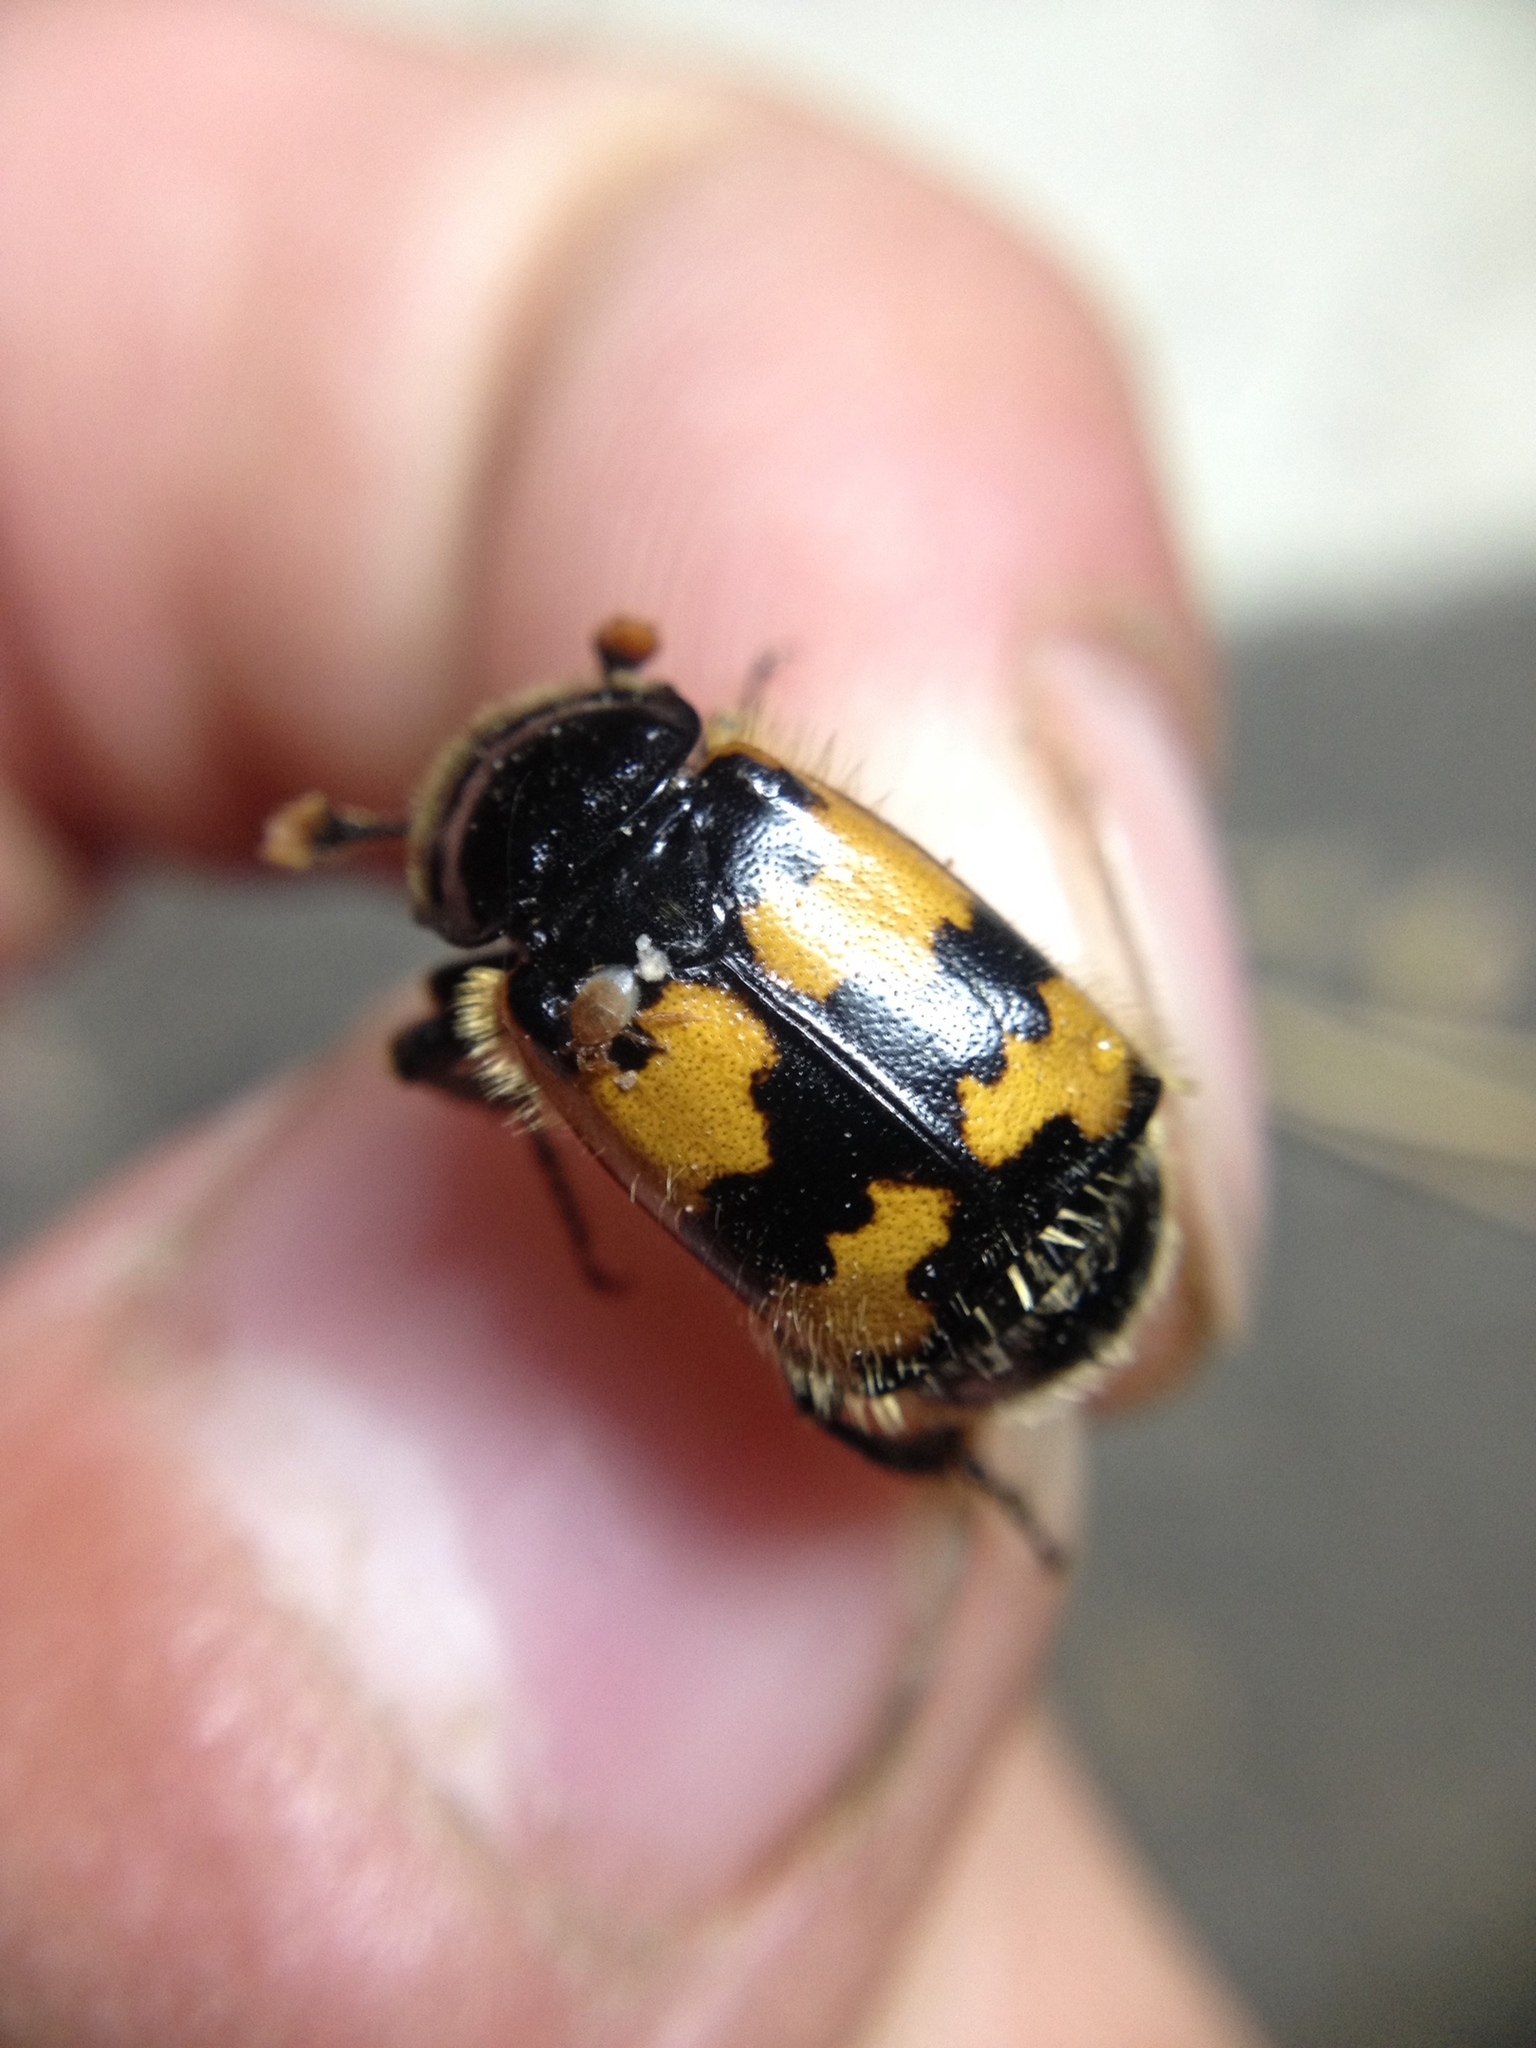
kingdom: Animalia
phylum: Arthropoda
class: Insecta
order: Coleoptera
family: Staphylinidae
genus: Nicrophorus
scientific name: Nicrophorus vespillo
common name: Common burying beetle
